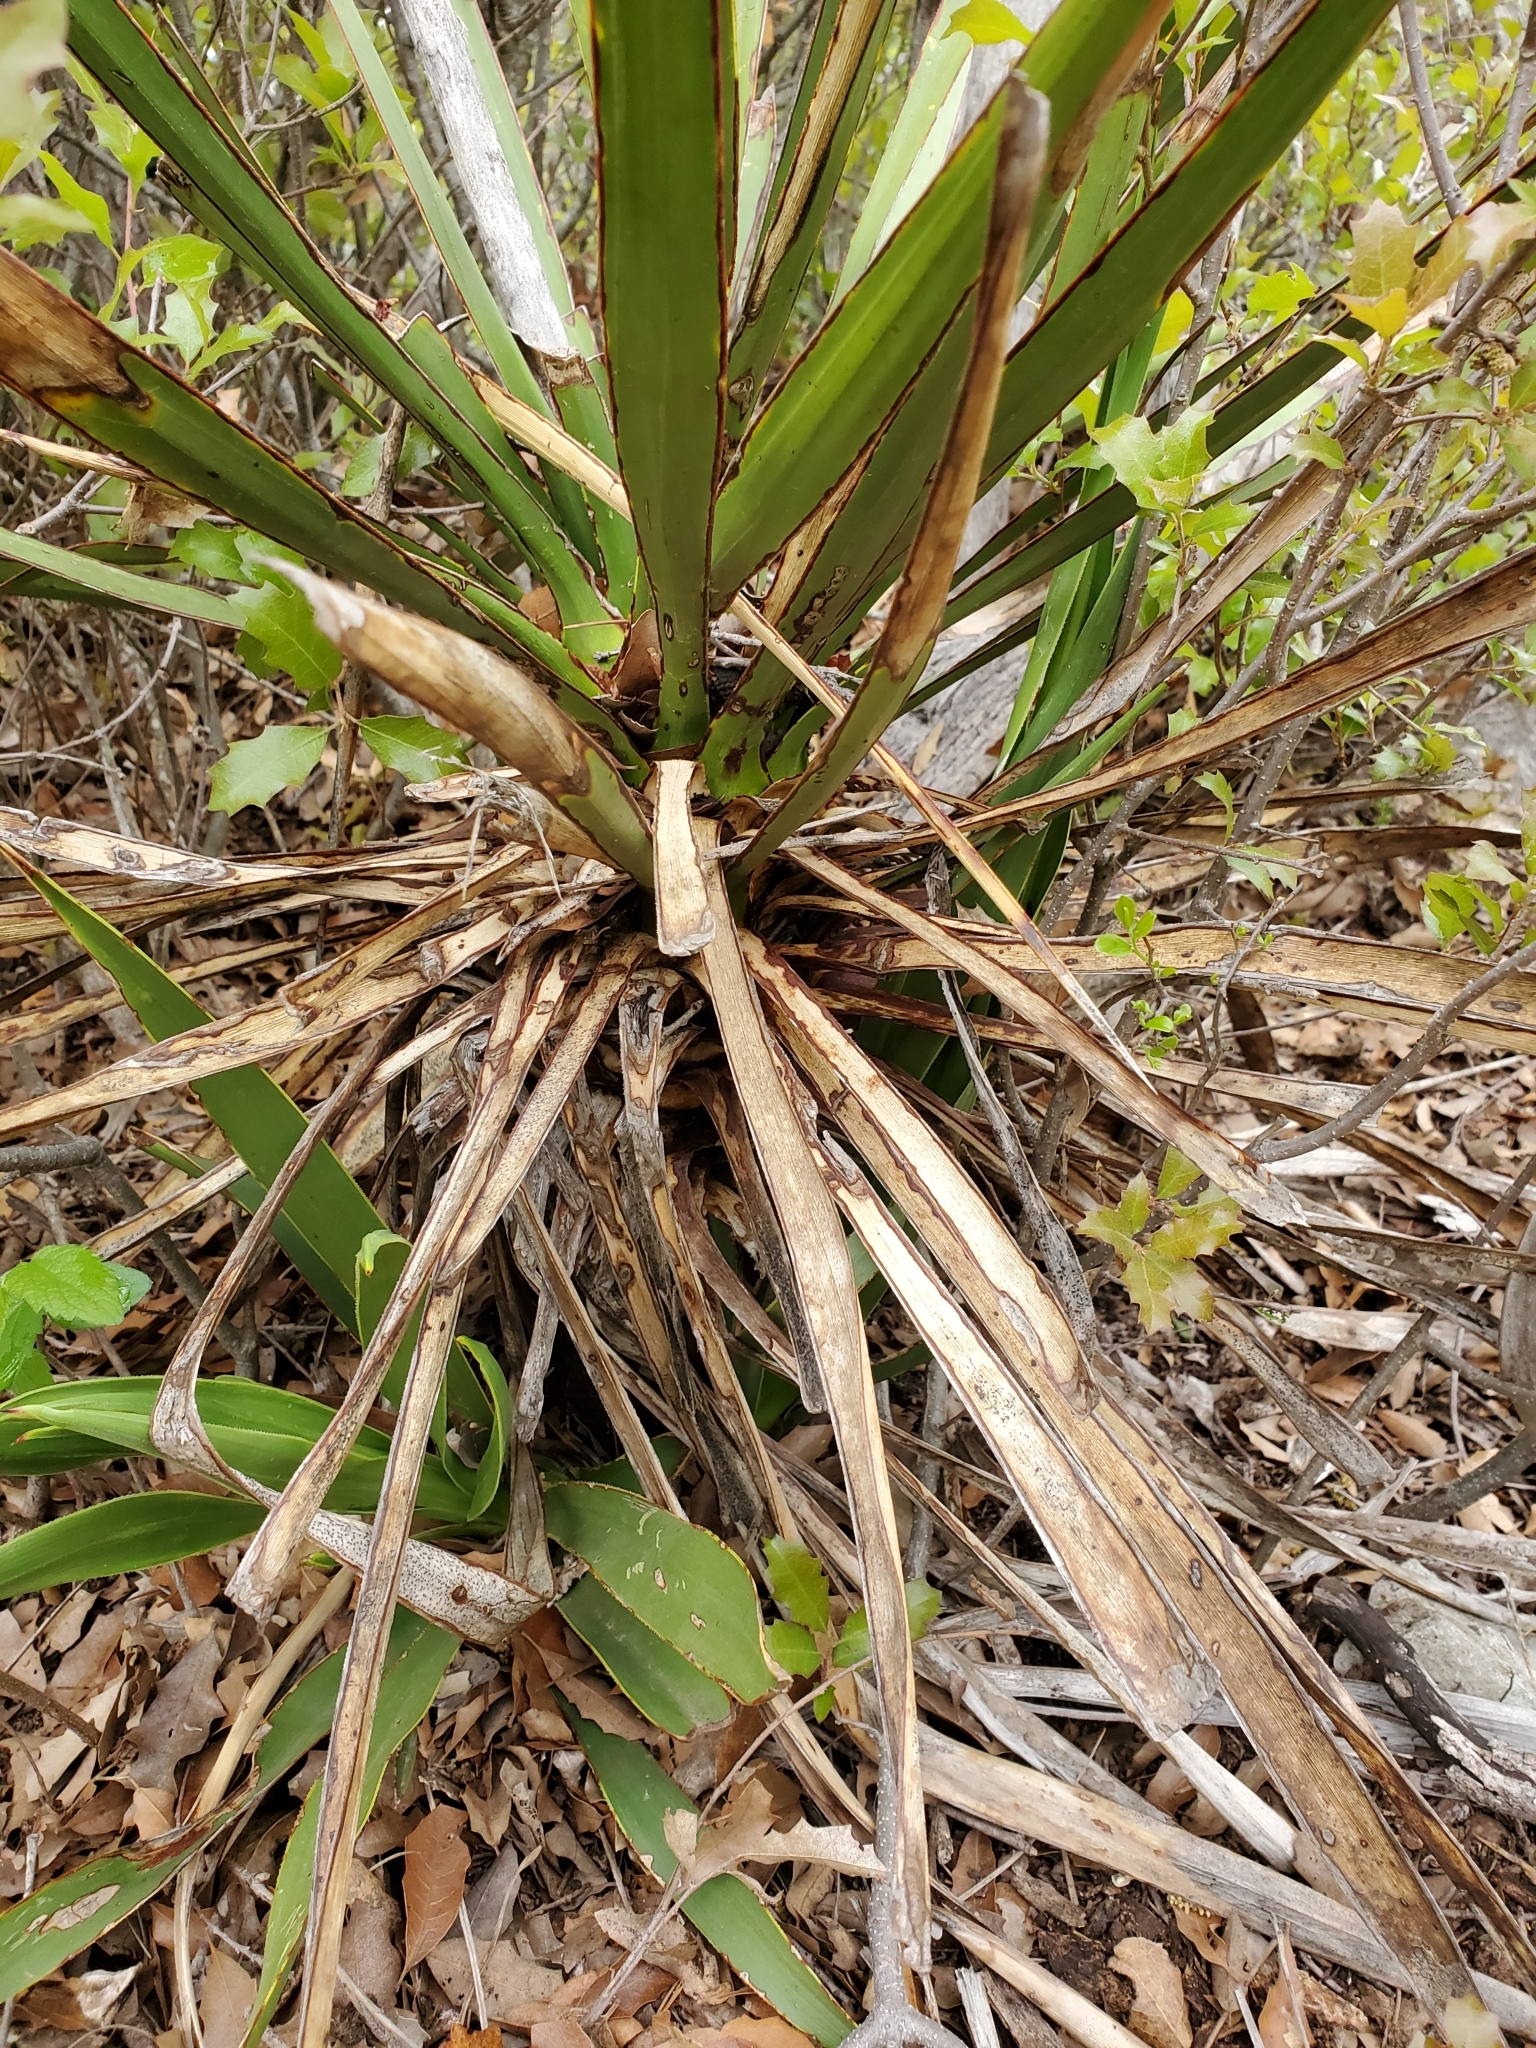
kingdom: Plantae
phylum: Tracheophyta
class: Liliopsida
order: Asparagales
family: Asparagaceae
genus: Yucca
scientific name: Yucca rupicola
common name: Twisted-leaf spanish-dagger
